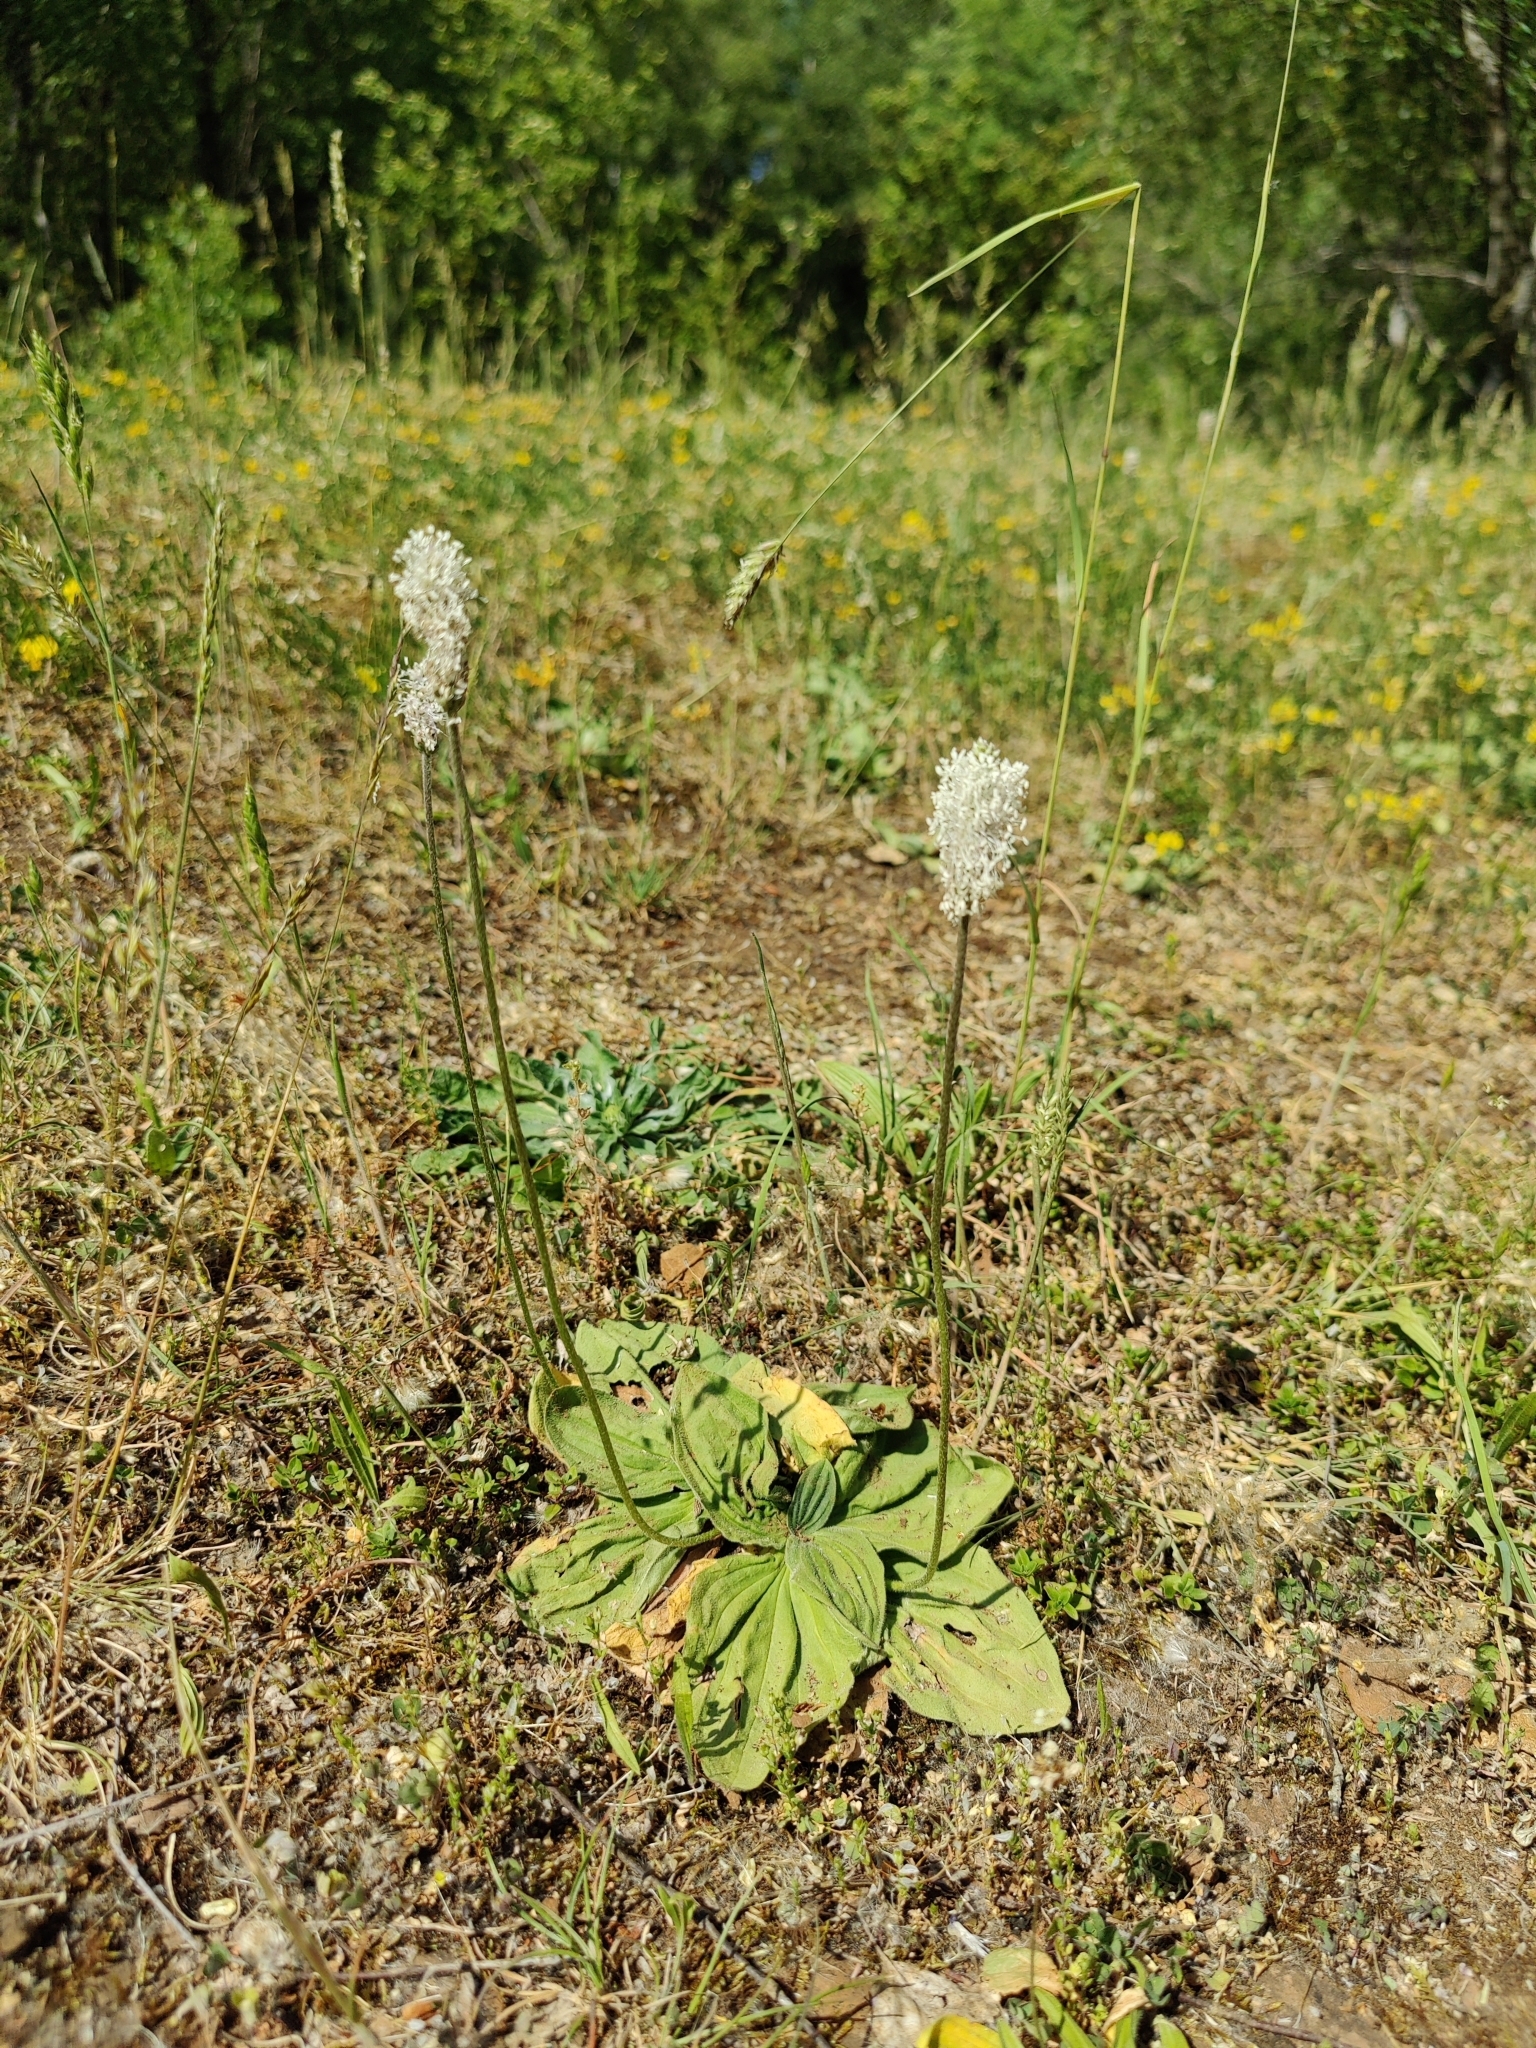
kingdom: Plantae
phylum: Tracheophyta
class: Magnoliopsida
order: Lamiales
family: Plantaginaceae
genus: Plantago
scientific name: Plantago media
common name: Hoary plantain
